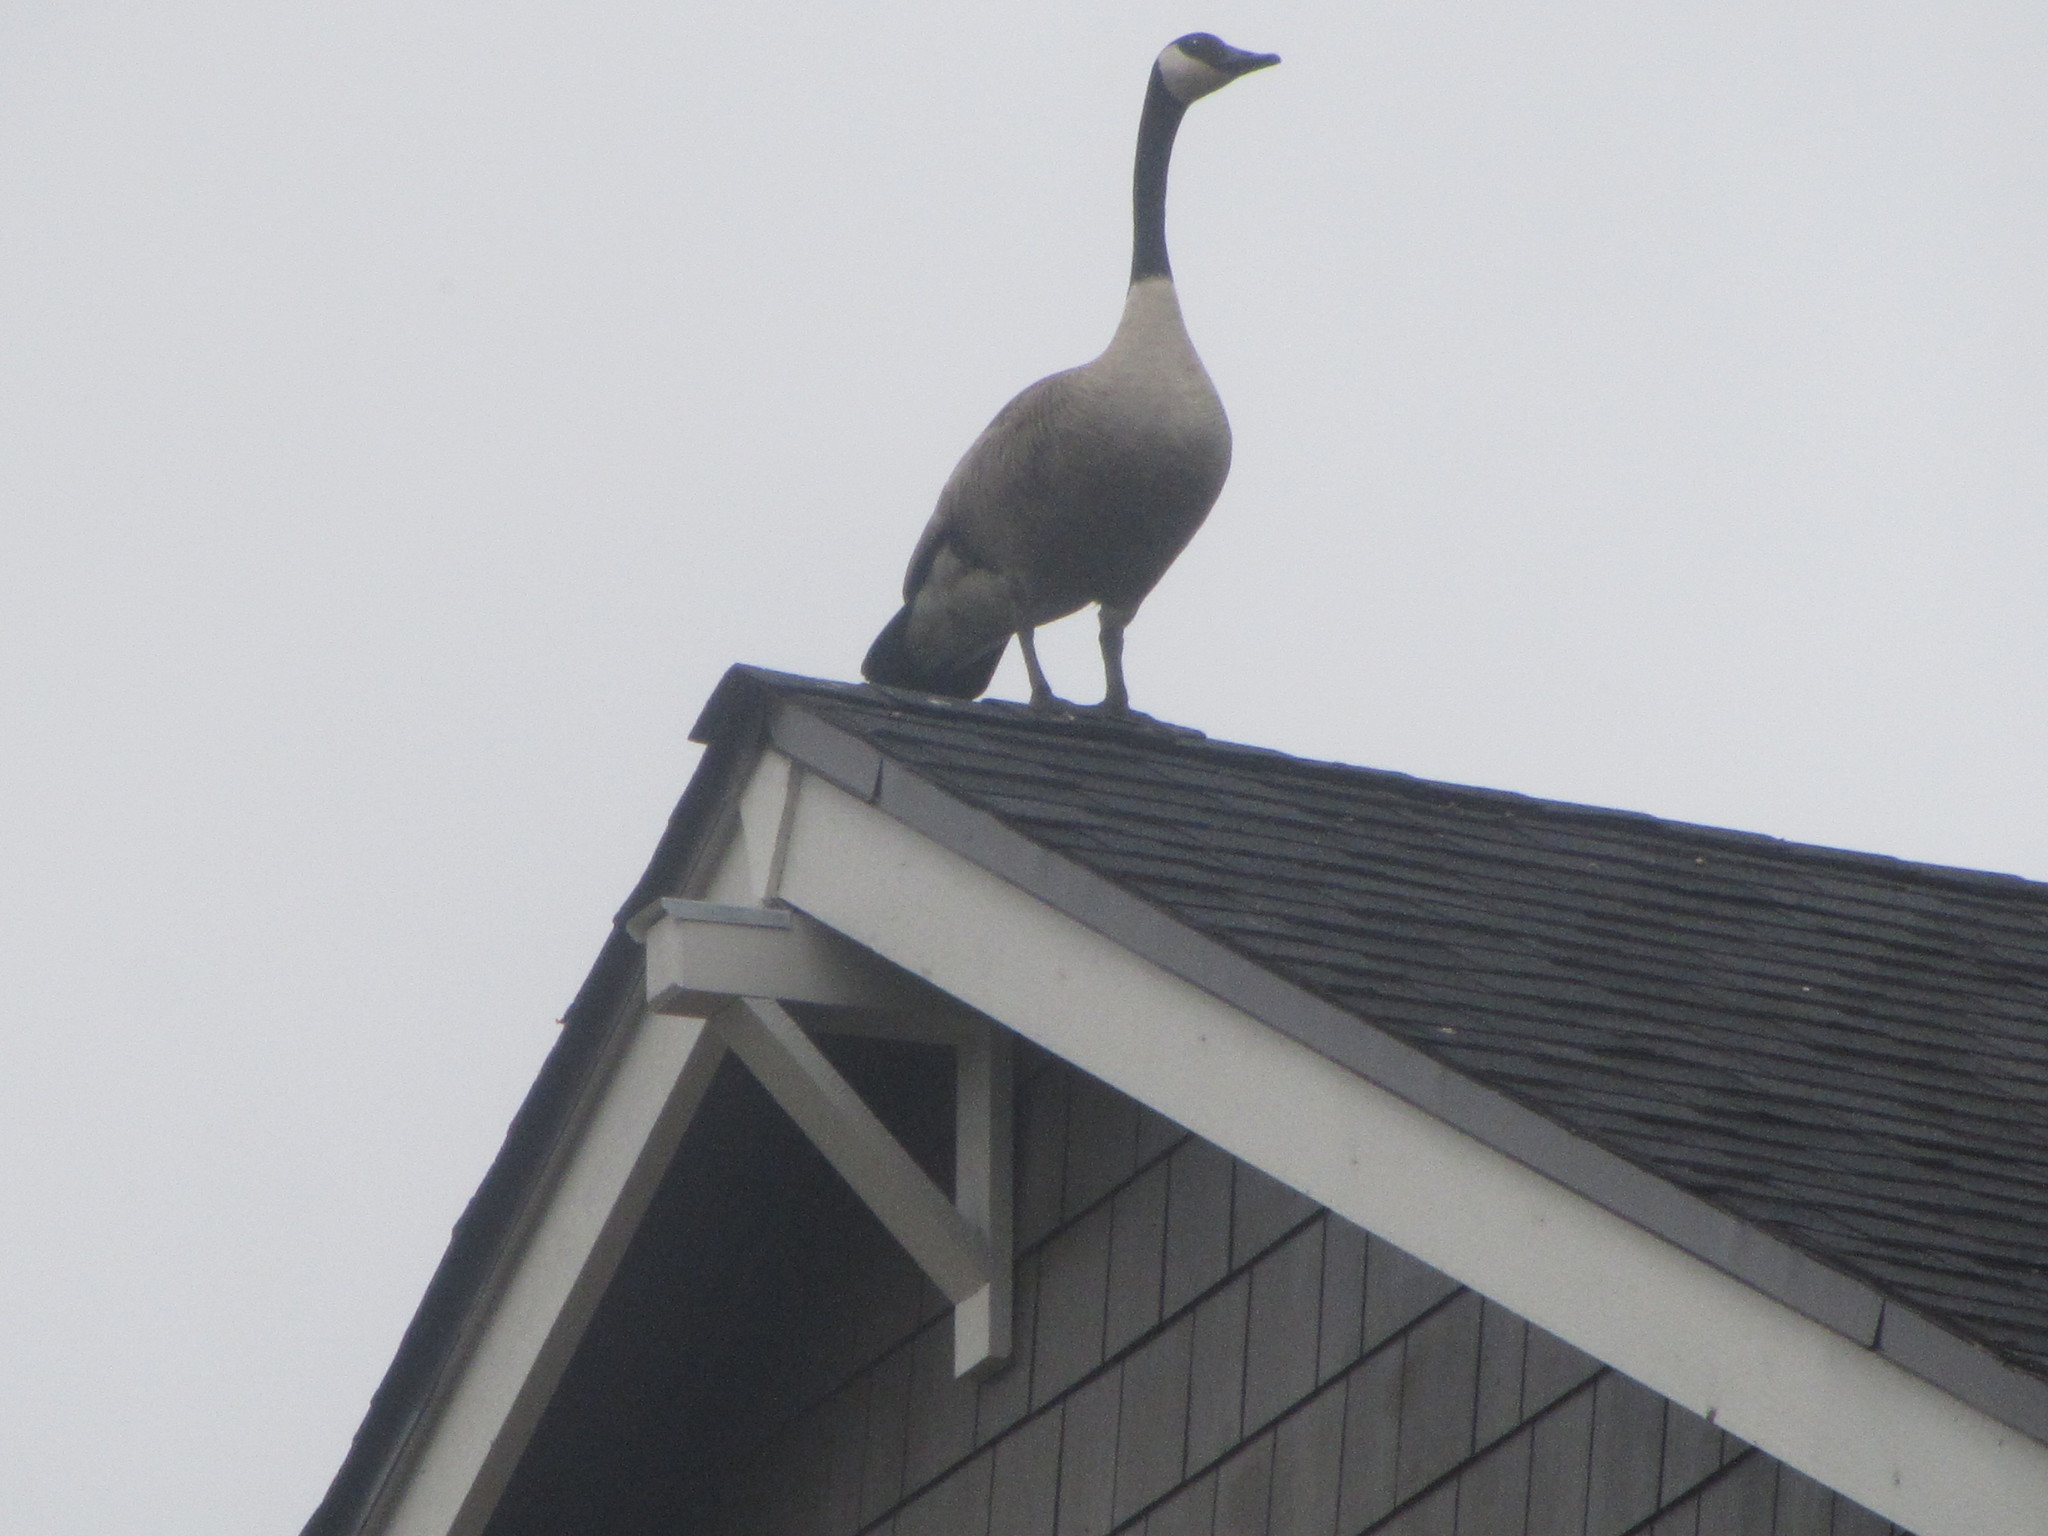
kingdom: Animalia
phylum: Chordata
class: Aves
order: Anseriformes
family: Anatidae
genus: Branta
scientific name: Branta canadensis
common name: Canada goose
